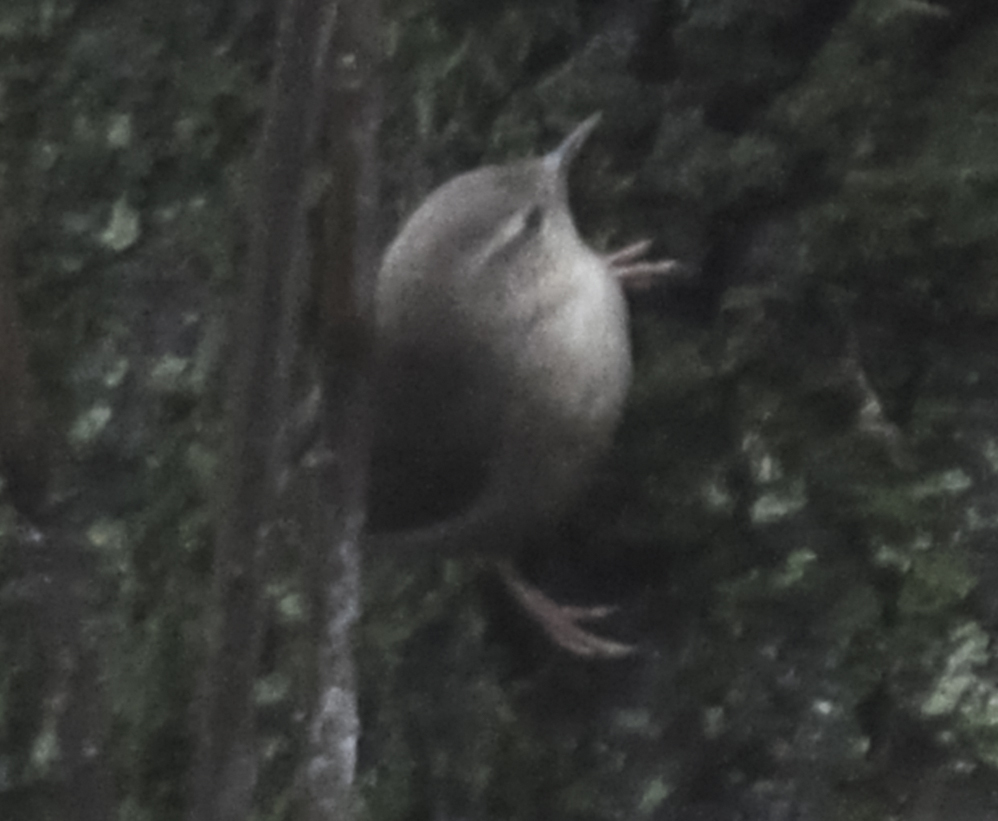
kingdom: Animalia
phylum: Chordata
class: Aves
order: Passeriformes
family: Troglodytidae
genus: Troglodytes
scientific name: Troglodytes troglodytes
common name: Eurasian wren
